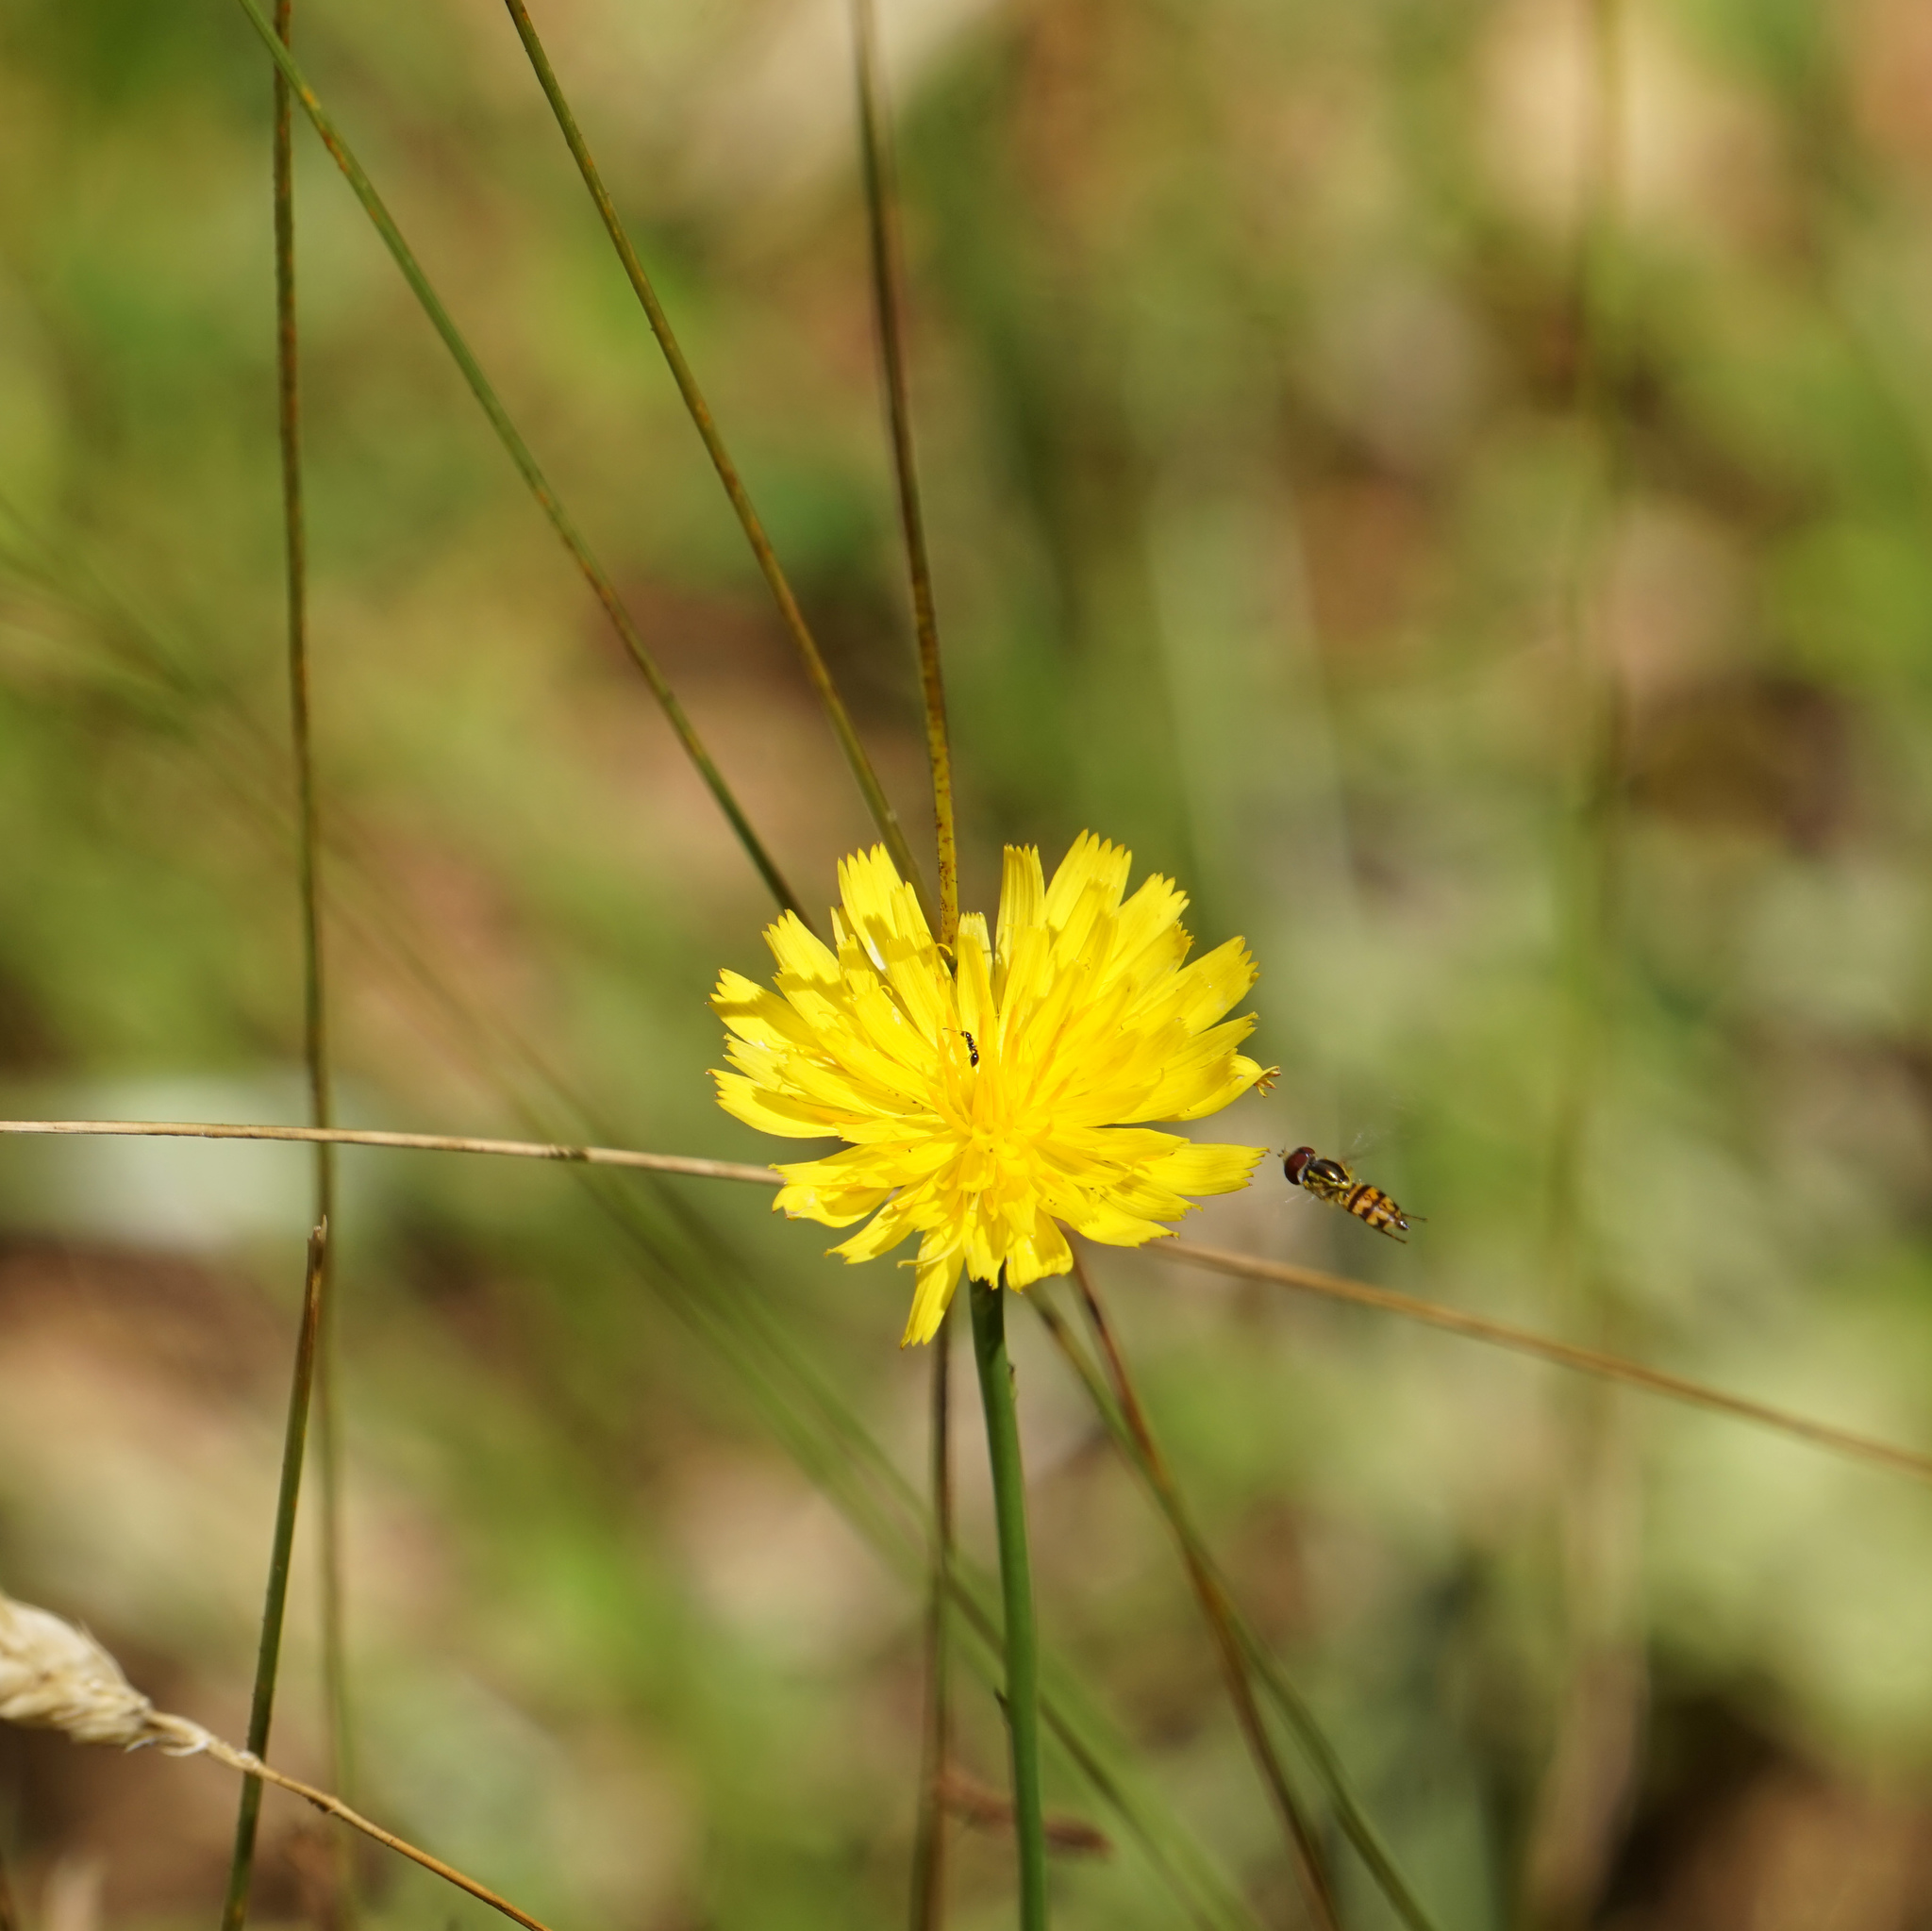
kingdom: Animalia
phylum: Arthropoda
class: Insecta
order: Diptera
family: Syrphidae
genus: Toxomerus
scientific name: Toxomerus geminatus
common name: Eastern calligrapher
